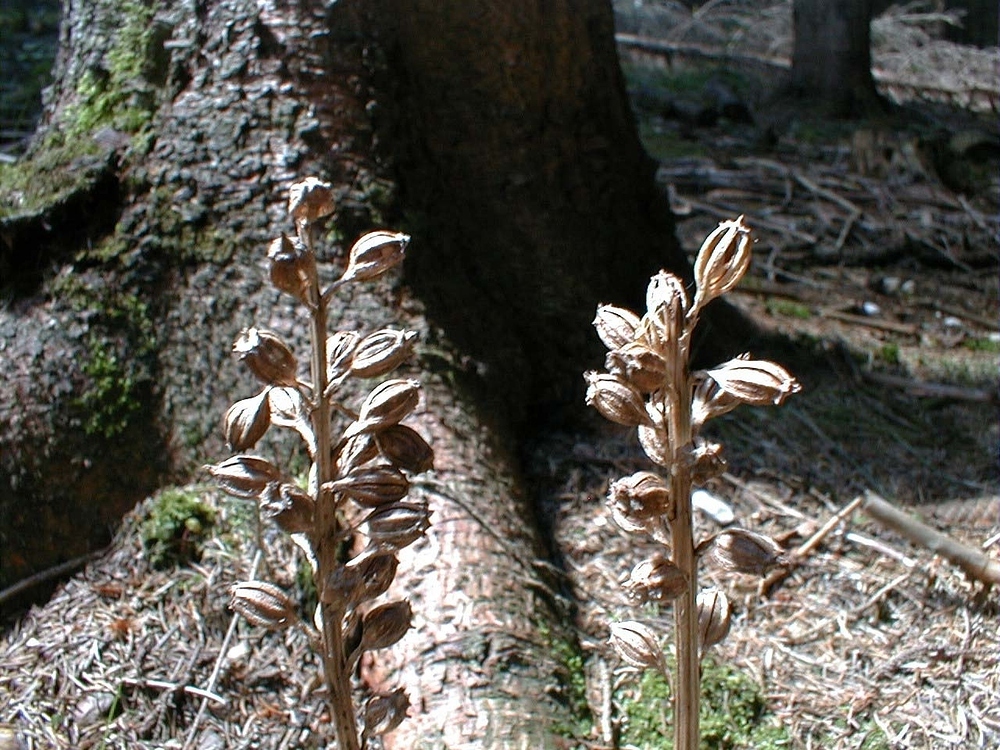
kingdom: Plantae
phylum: Tracheophyta
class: Liliopsida
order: Asparagales
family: Orchidaceae
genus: Neottia
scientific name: Neottia nidus-avis
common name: Bird's-nest orchid
